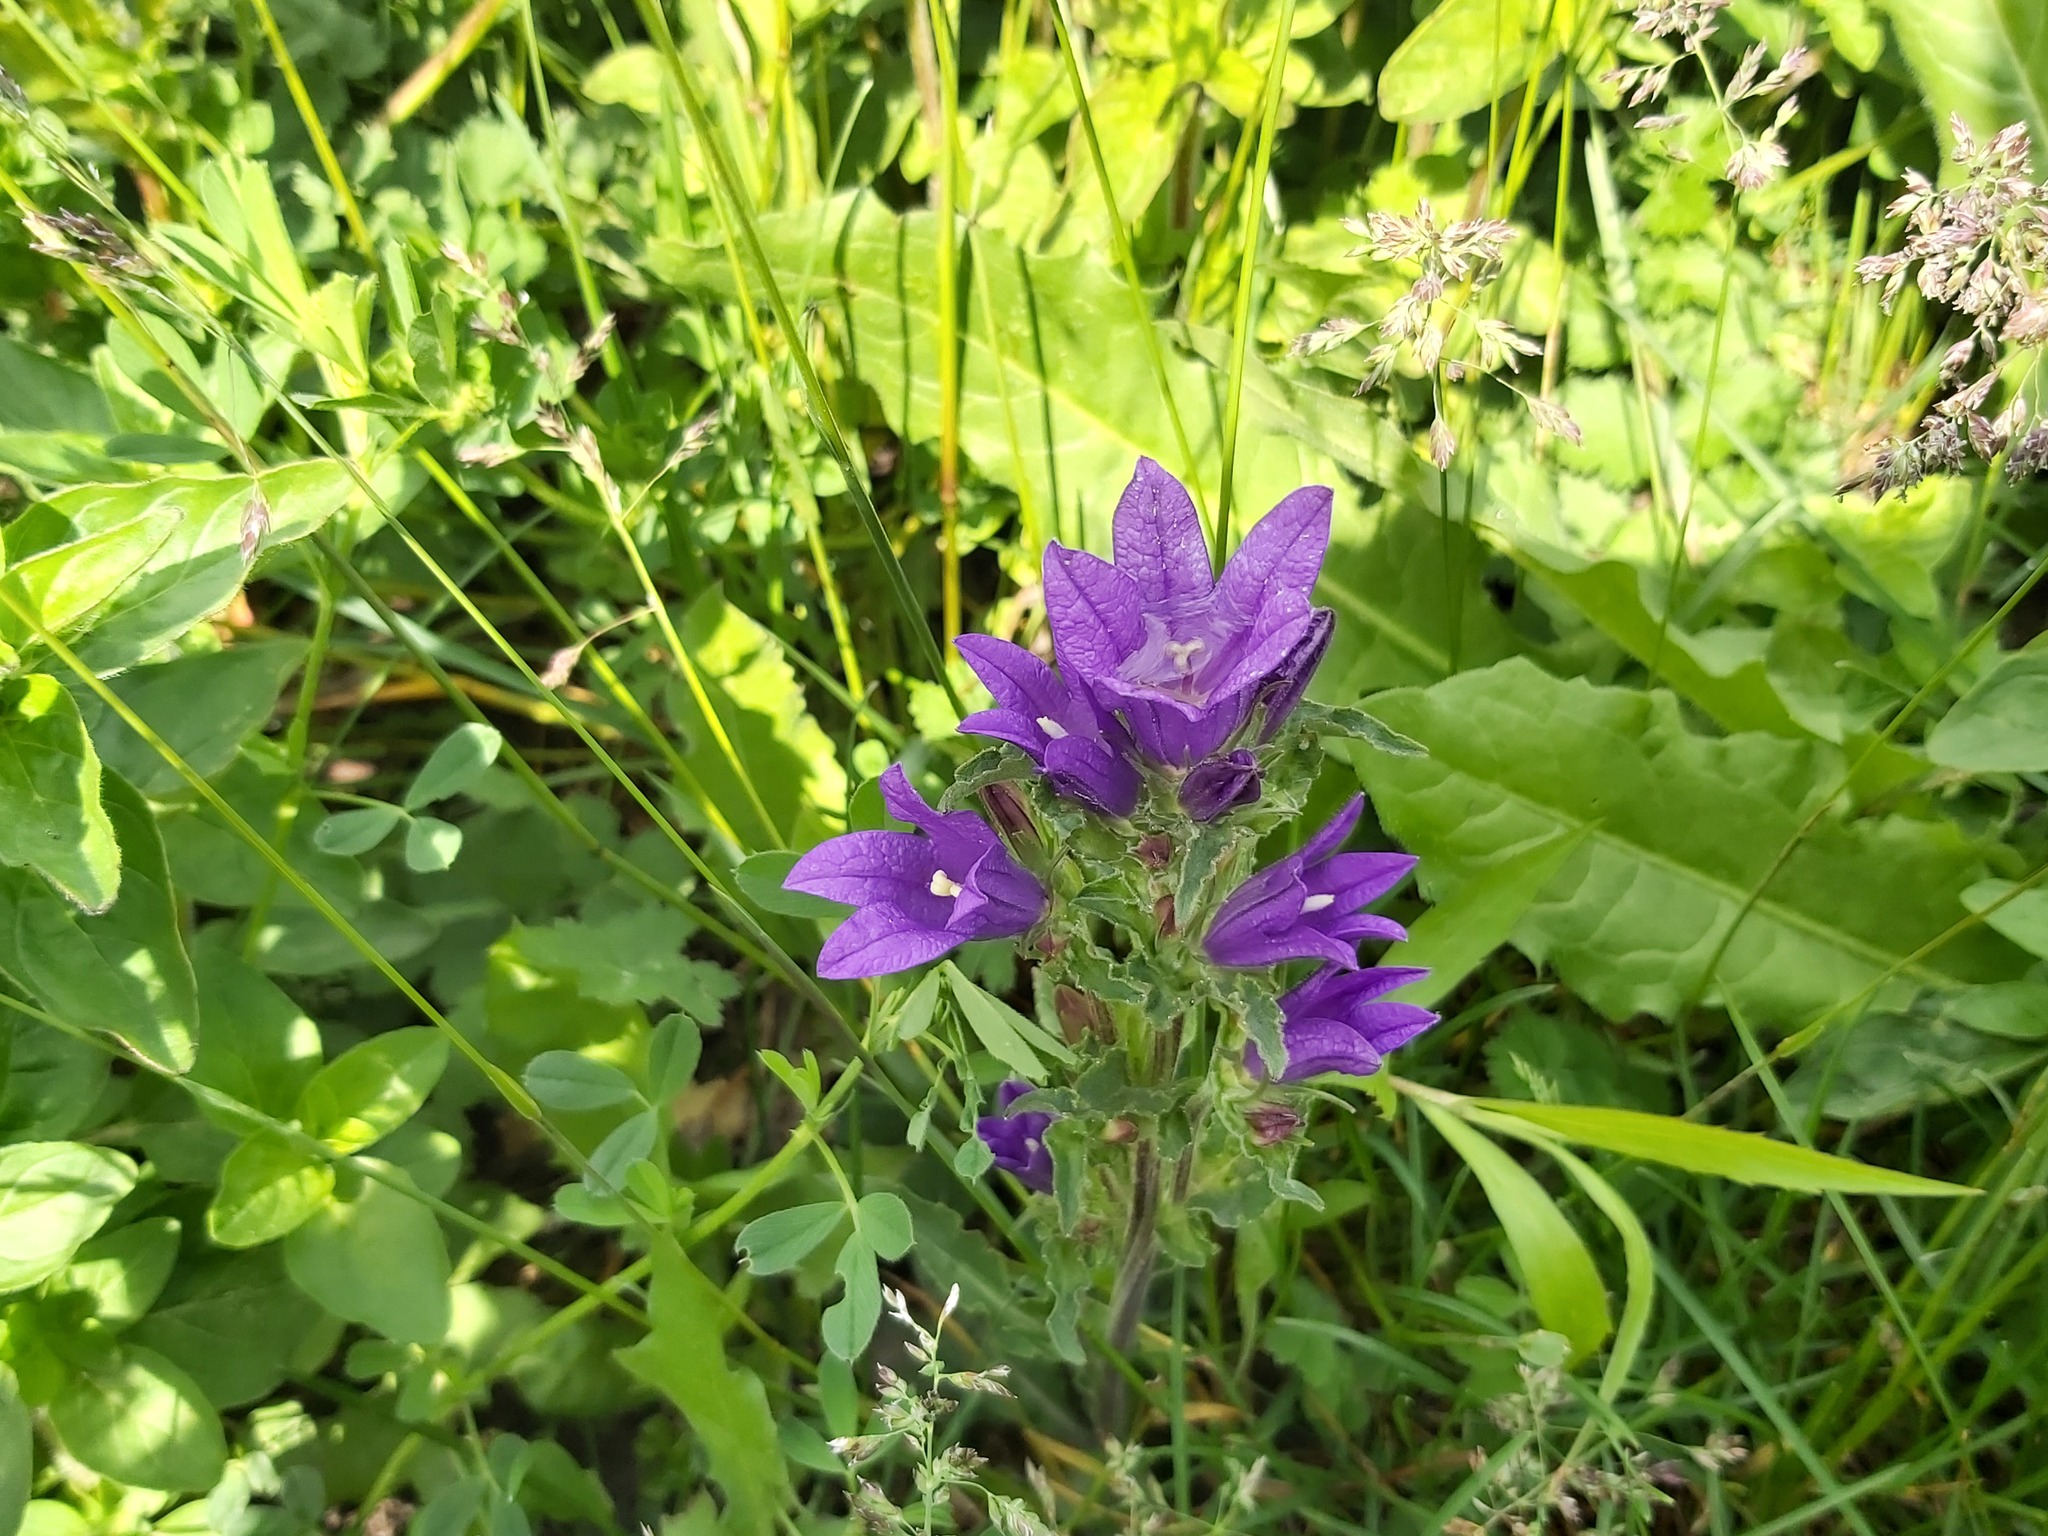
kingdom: Plantae
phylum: Tracheophyta
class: Magnoliopsida
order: Asterales
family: Campanulaceae
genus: Campanula
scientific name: Campanula glomerata
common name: Clustered bellflower
